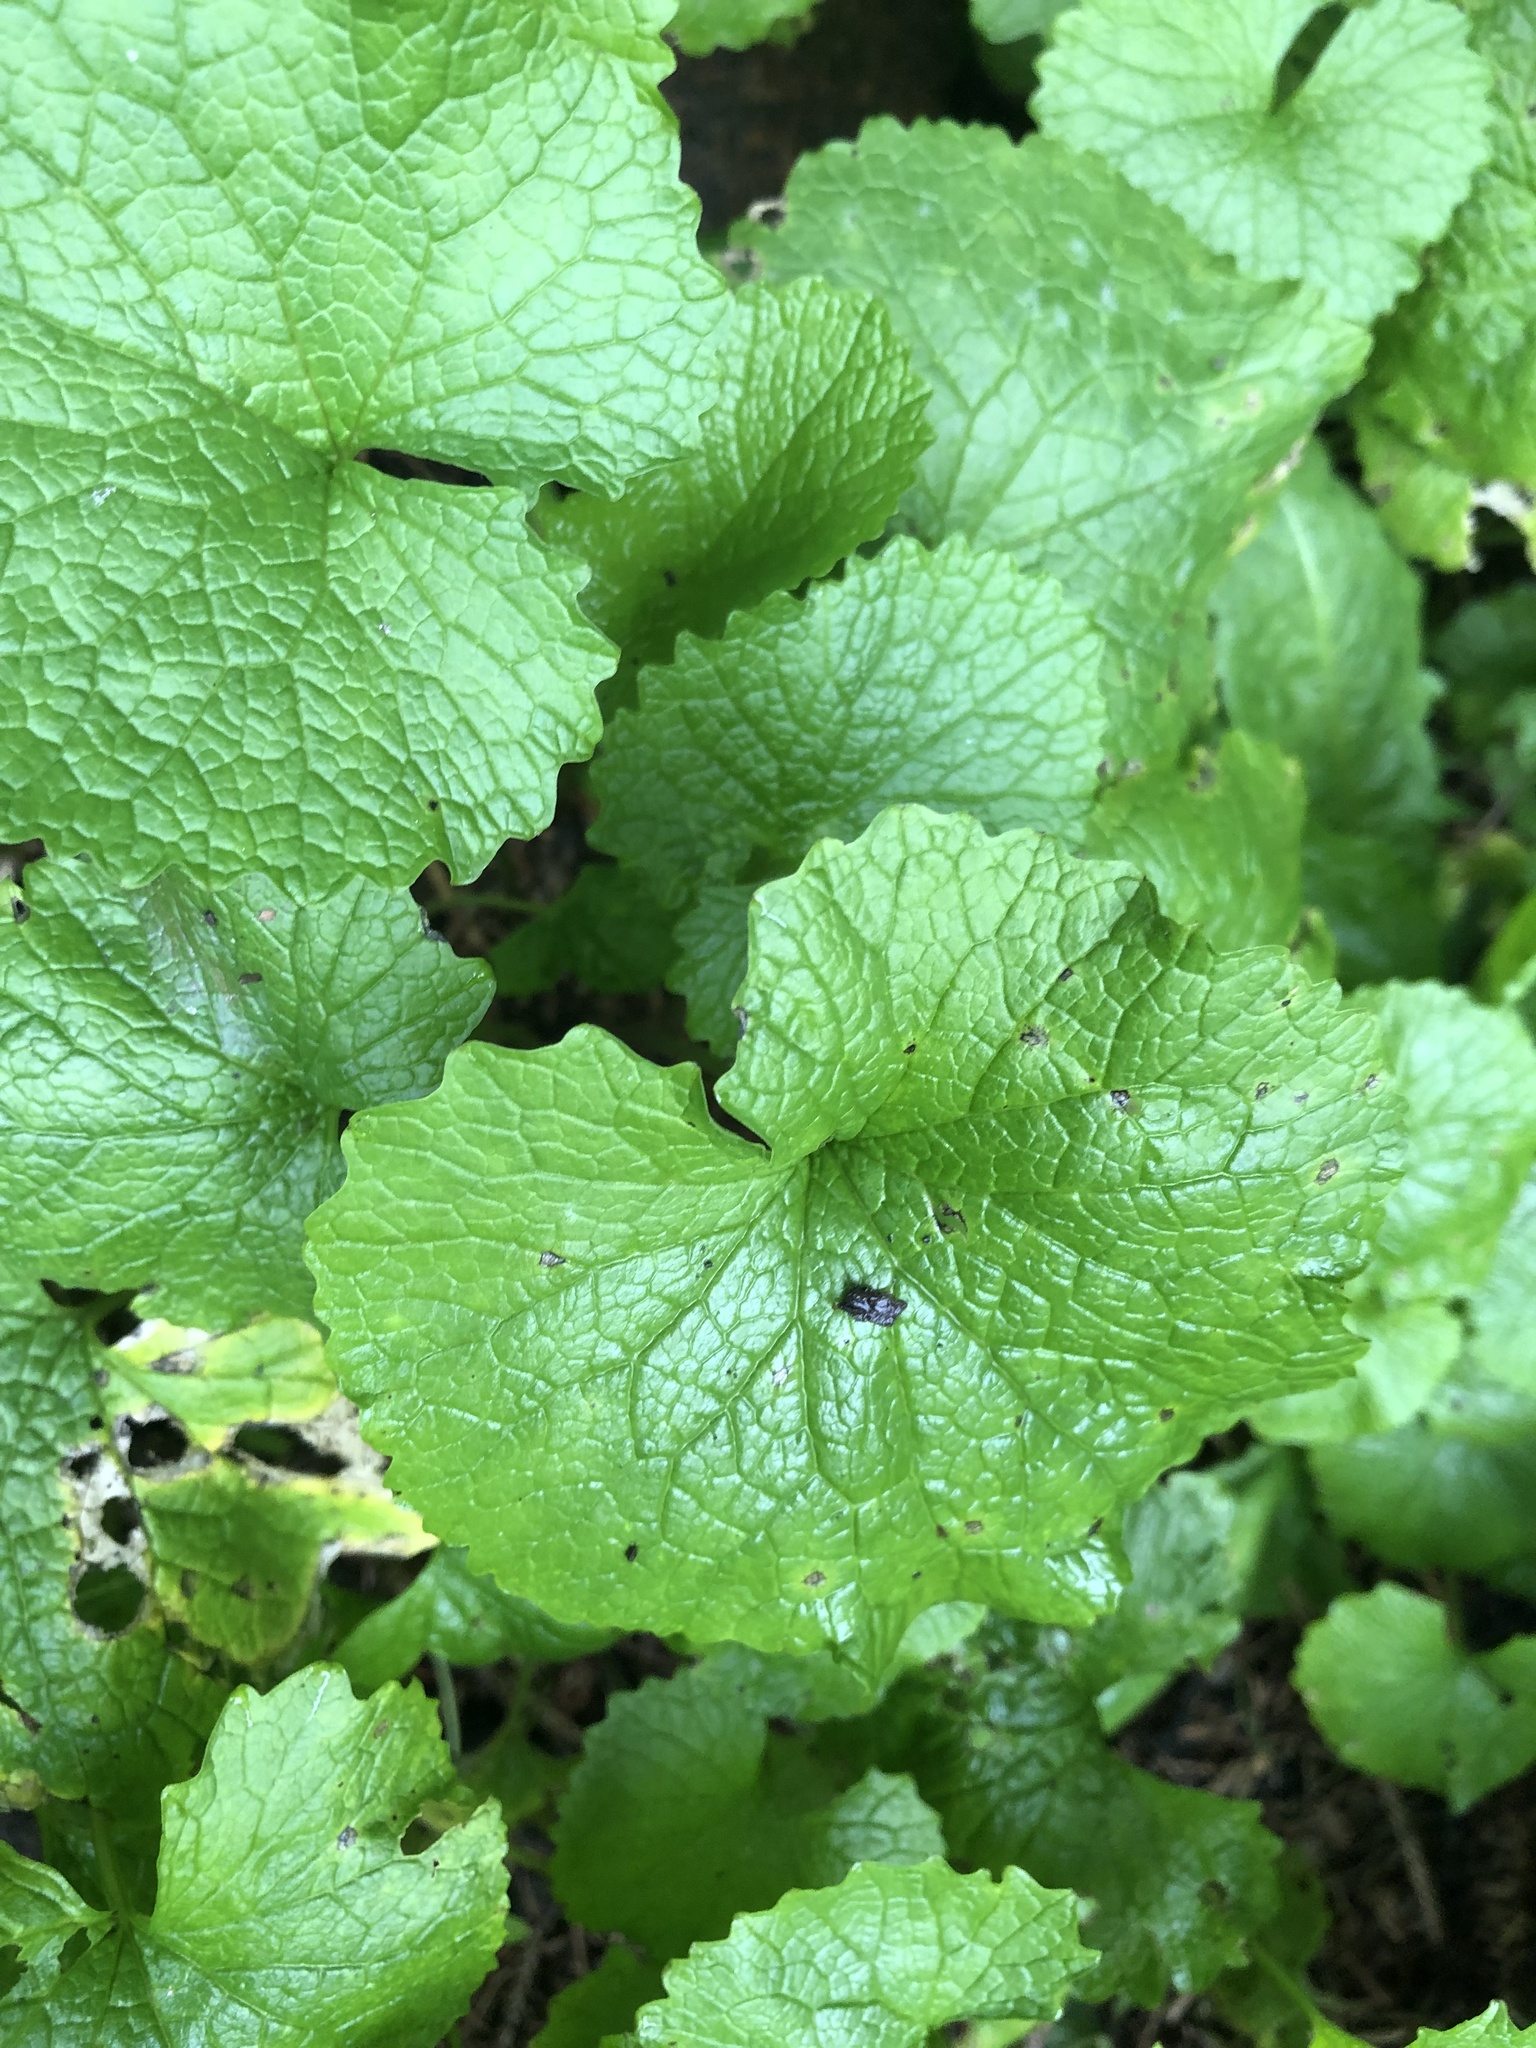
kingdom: Plantae
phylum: Tracheophyta
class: Magnoliopsida
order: Brassicales
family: Brassicaceae
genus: Alliaria
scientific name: Alliaria petiolata
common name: Garlic mustard
